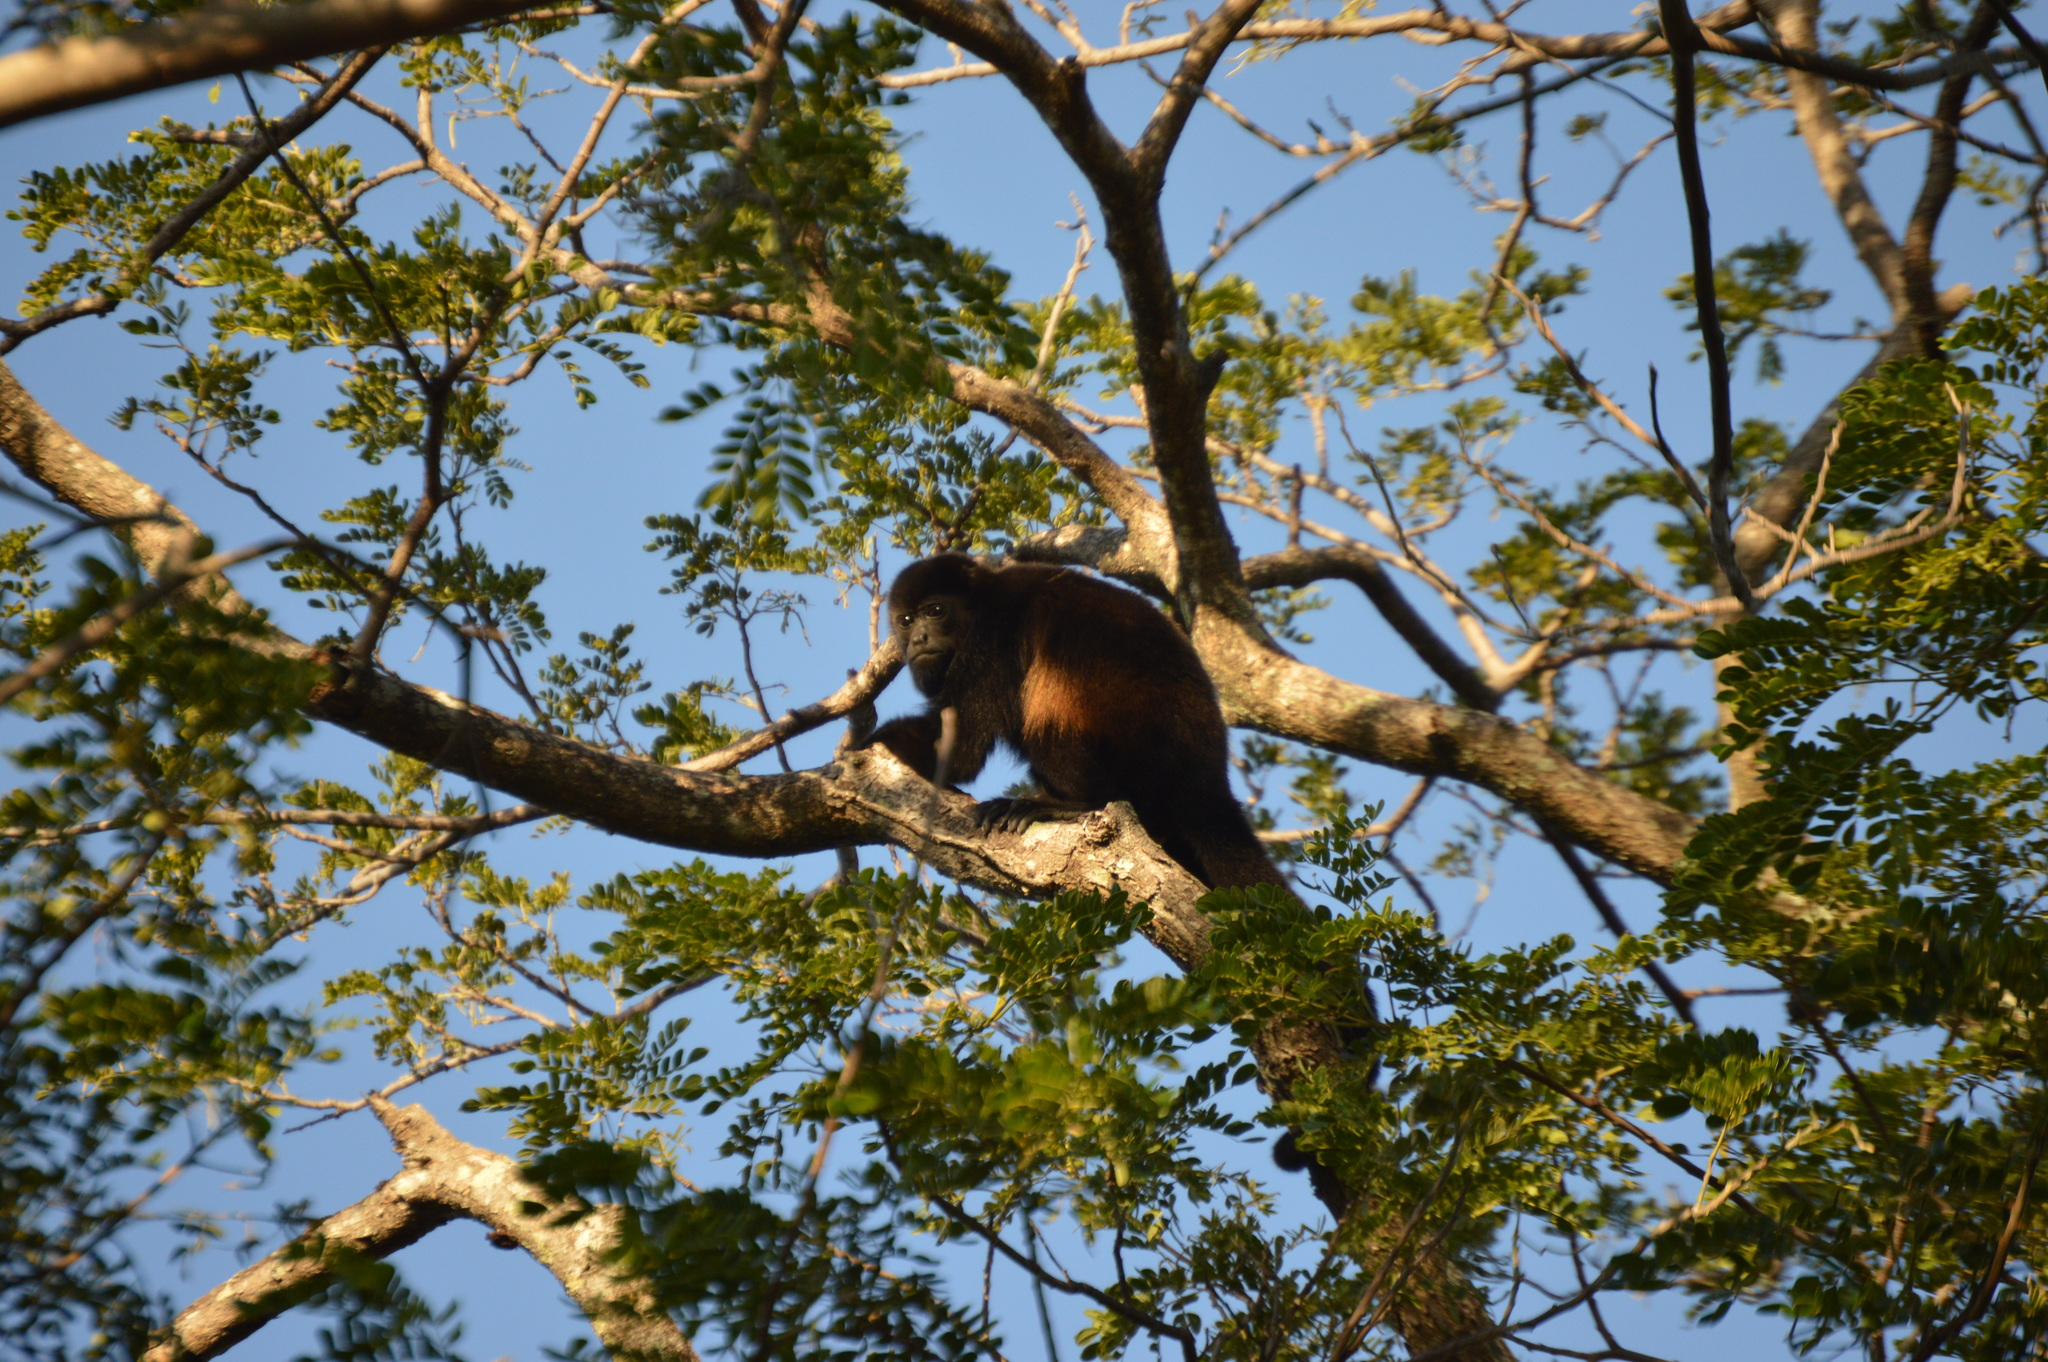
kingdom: Animalia
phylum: Chordata
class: Mammalia
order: Primates
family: Atelidae
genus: Alouatta
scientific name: Alouatta palliata
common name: Mantled howler
